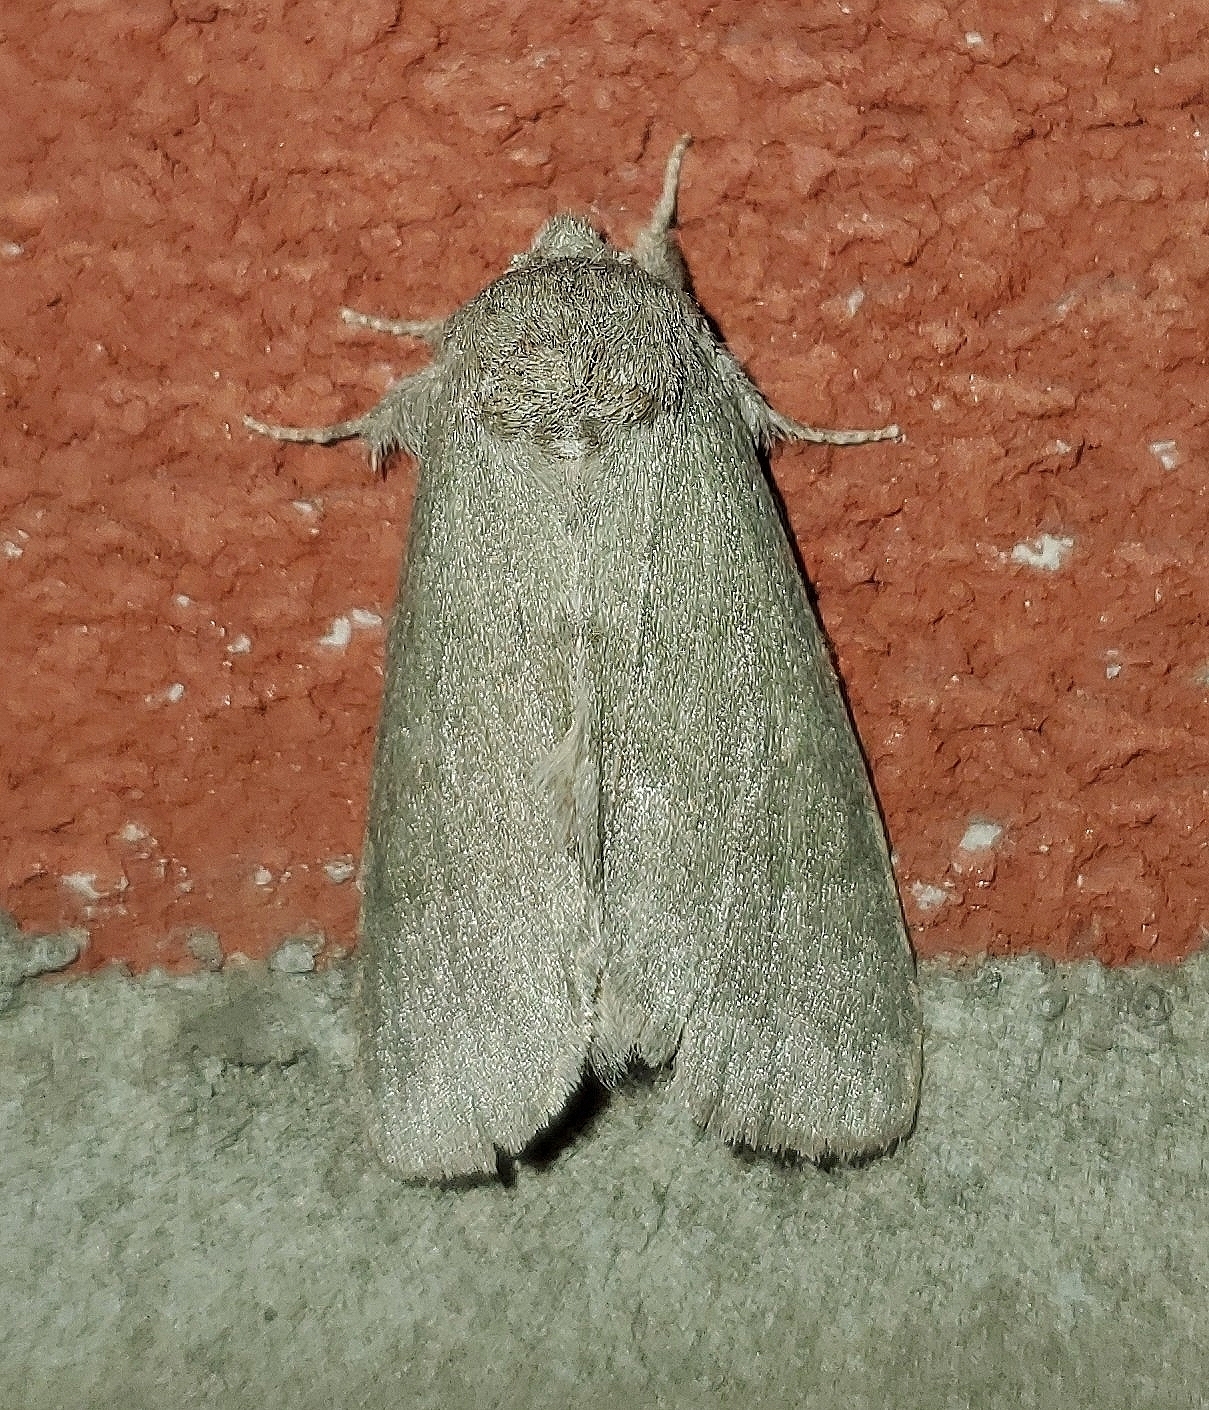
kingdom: Animalia
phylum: Arthropoda
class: Insecta
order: Lepidoptera
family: Notodontidae
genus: Misogada
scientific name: Misogada unicolor
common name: Drab prominent
